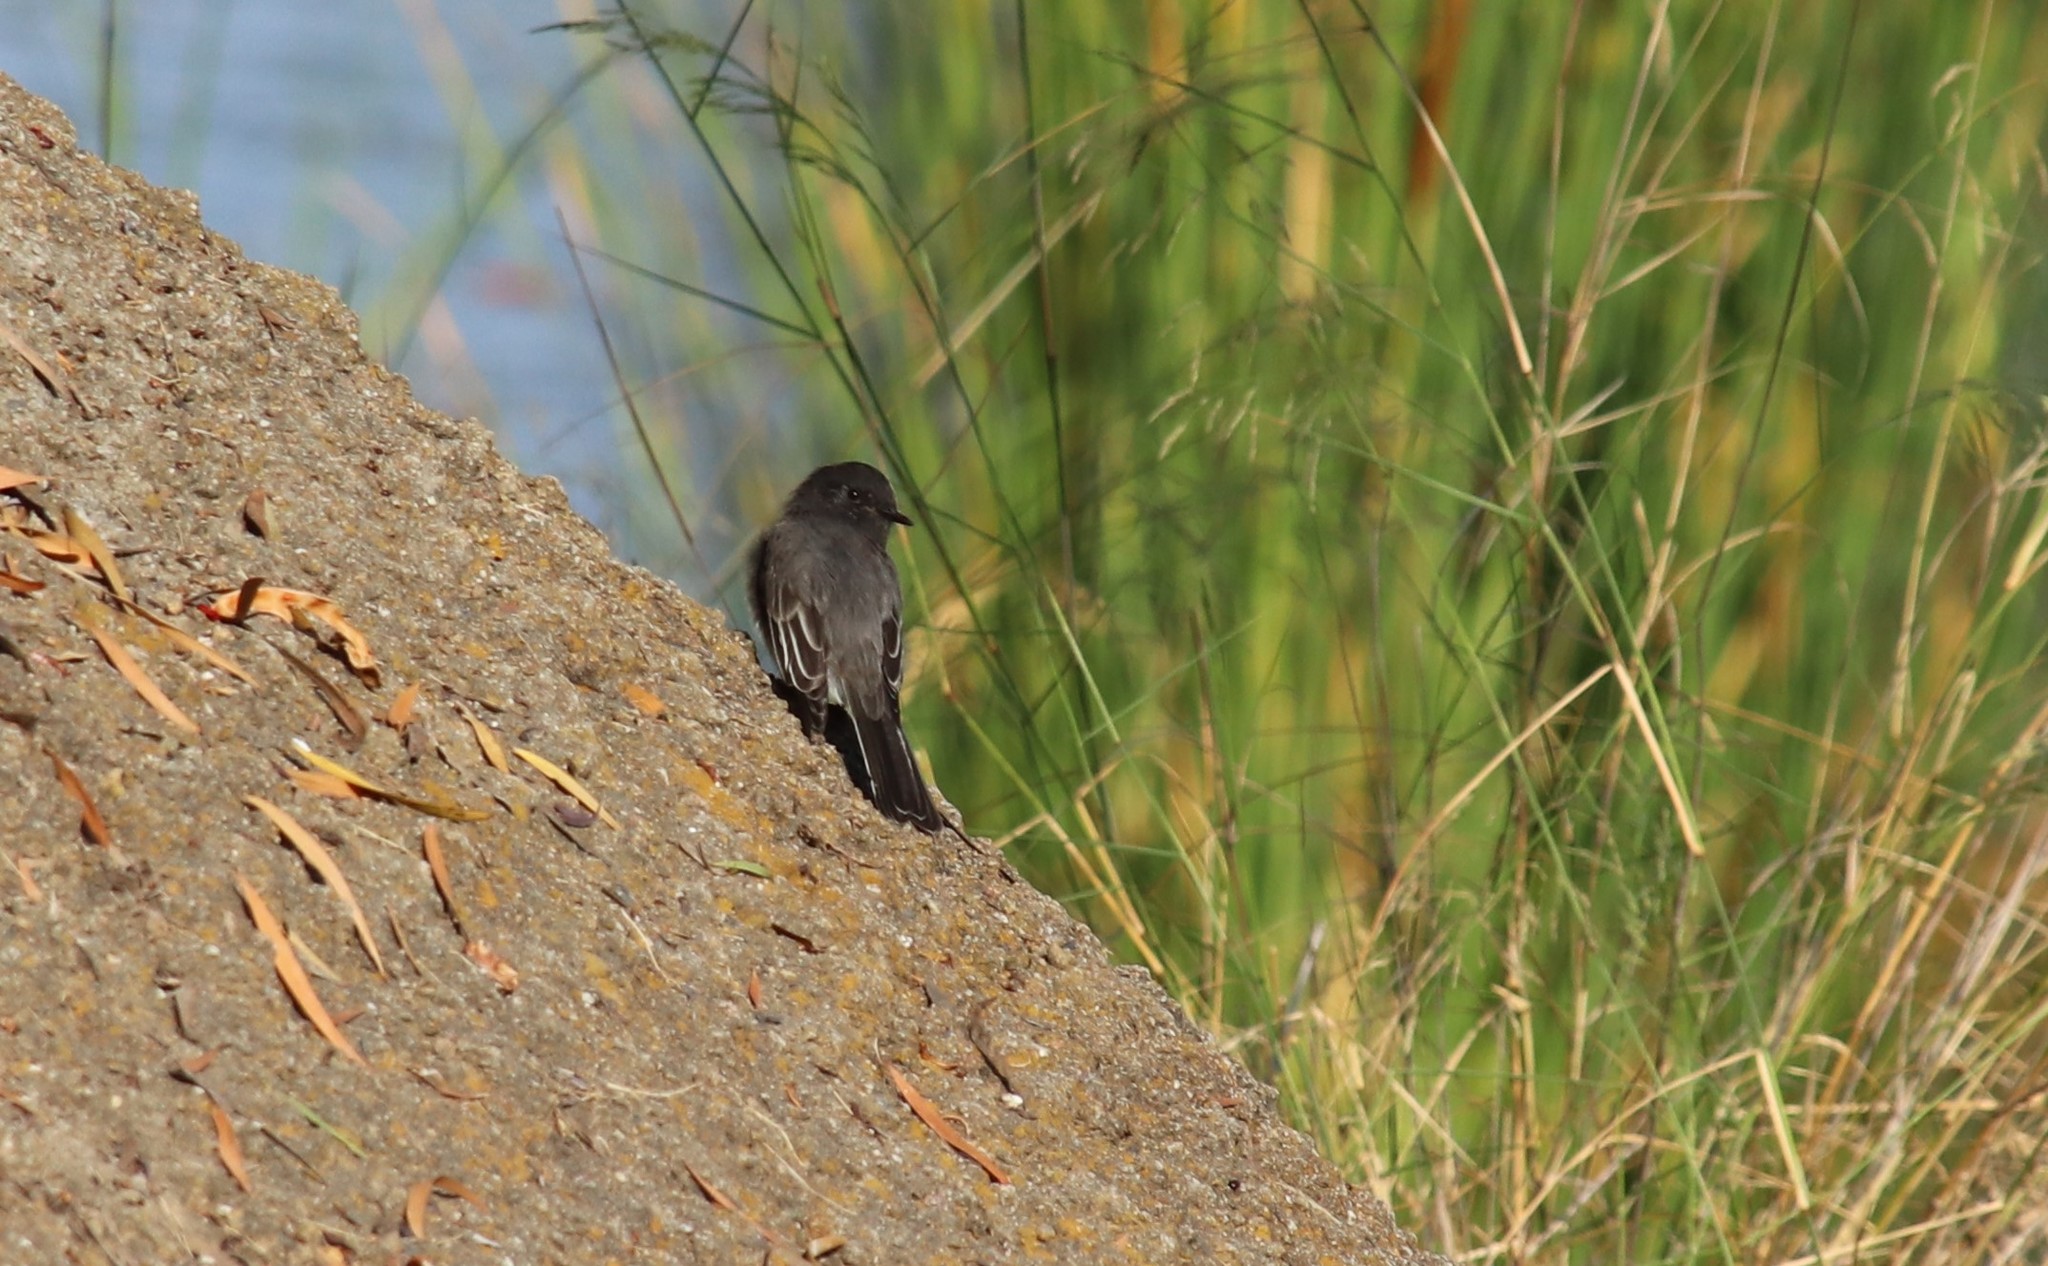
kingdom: Animalia
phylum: Chordata
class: Aves
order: Passeriformes
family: Tyrannidae
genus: Sayornis
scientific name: Sayornis nigricans
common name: Black phoebe
